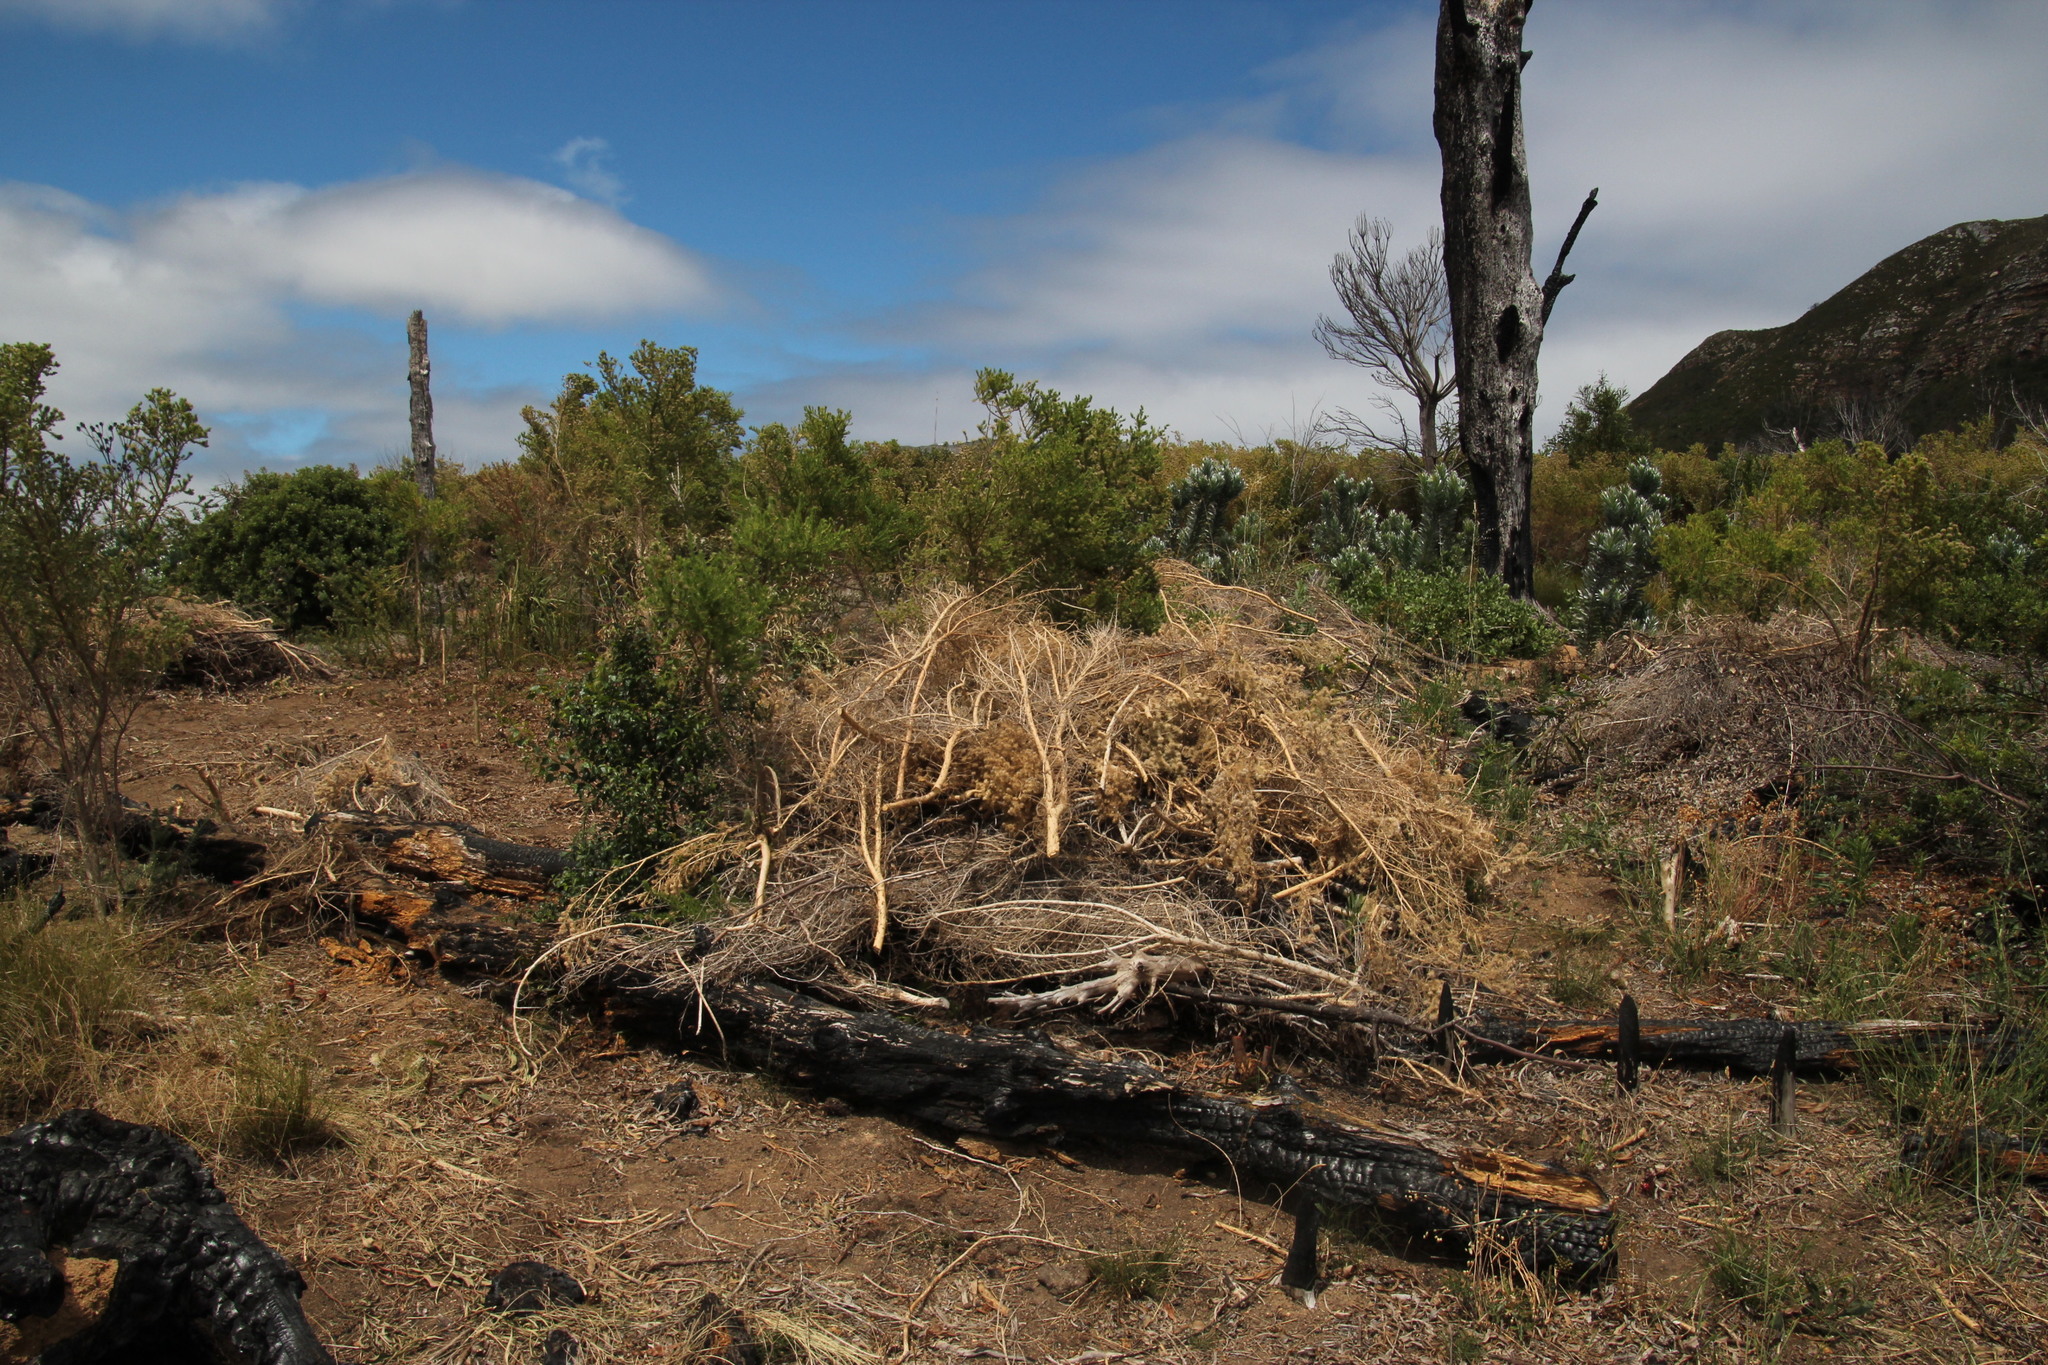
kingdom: Plantae
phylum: Tracheophyta
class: Magnoliopsida
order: Fabales
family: Fabaceae
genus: Aspalathus
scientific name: Aspalathus chenopoda
